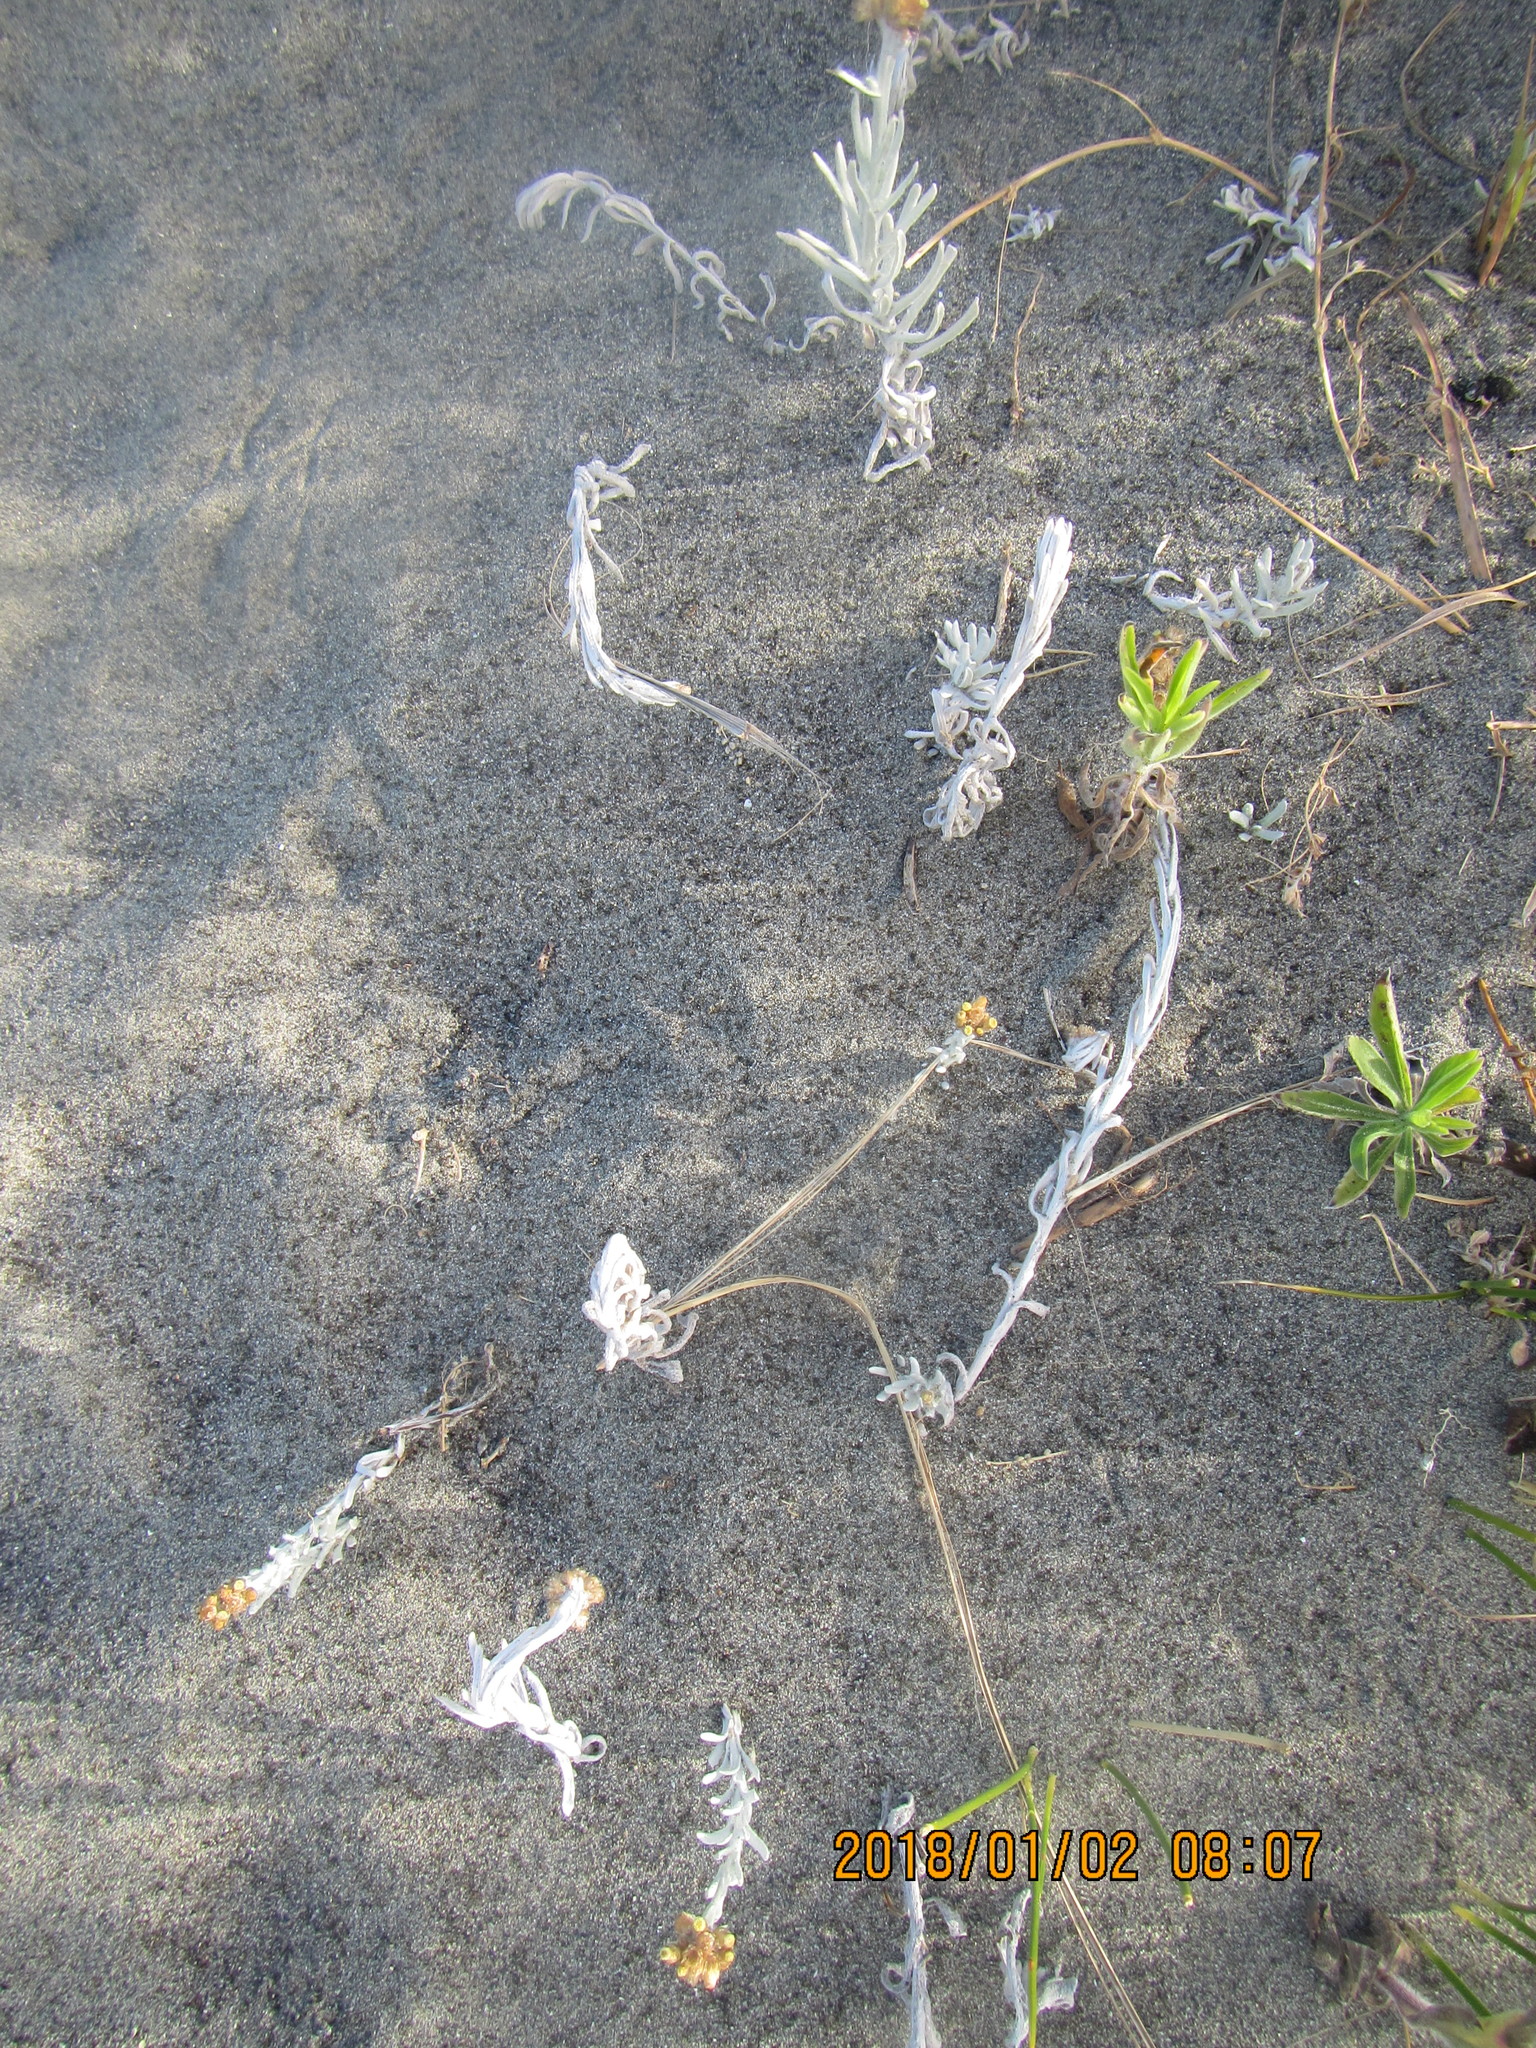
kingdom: Plantae
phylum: Tracheophyta
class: Magnoliopsida
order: Asterales
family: Asteraceae
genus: Helichrysum
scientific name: Helichrysum luteoalbum
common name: Daisy
